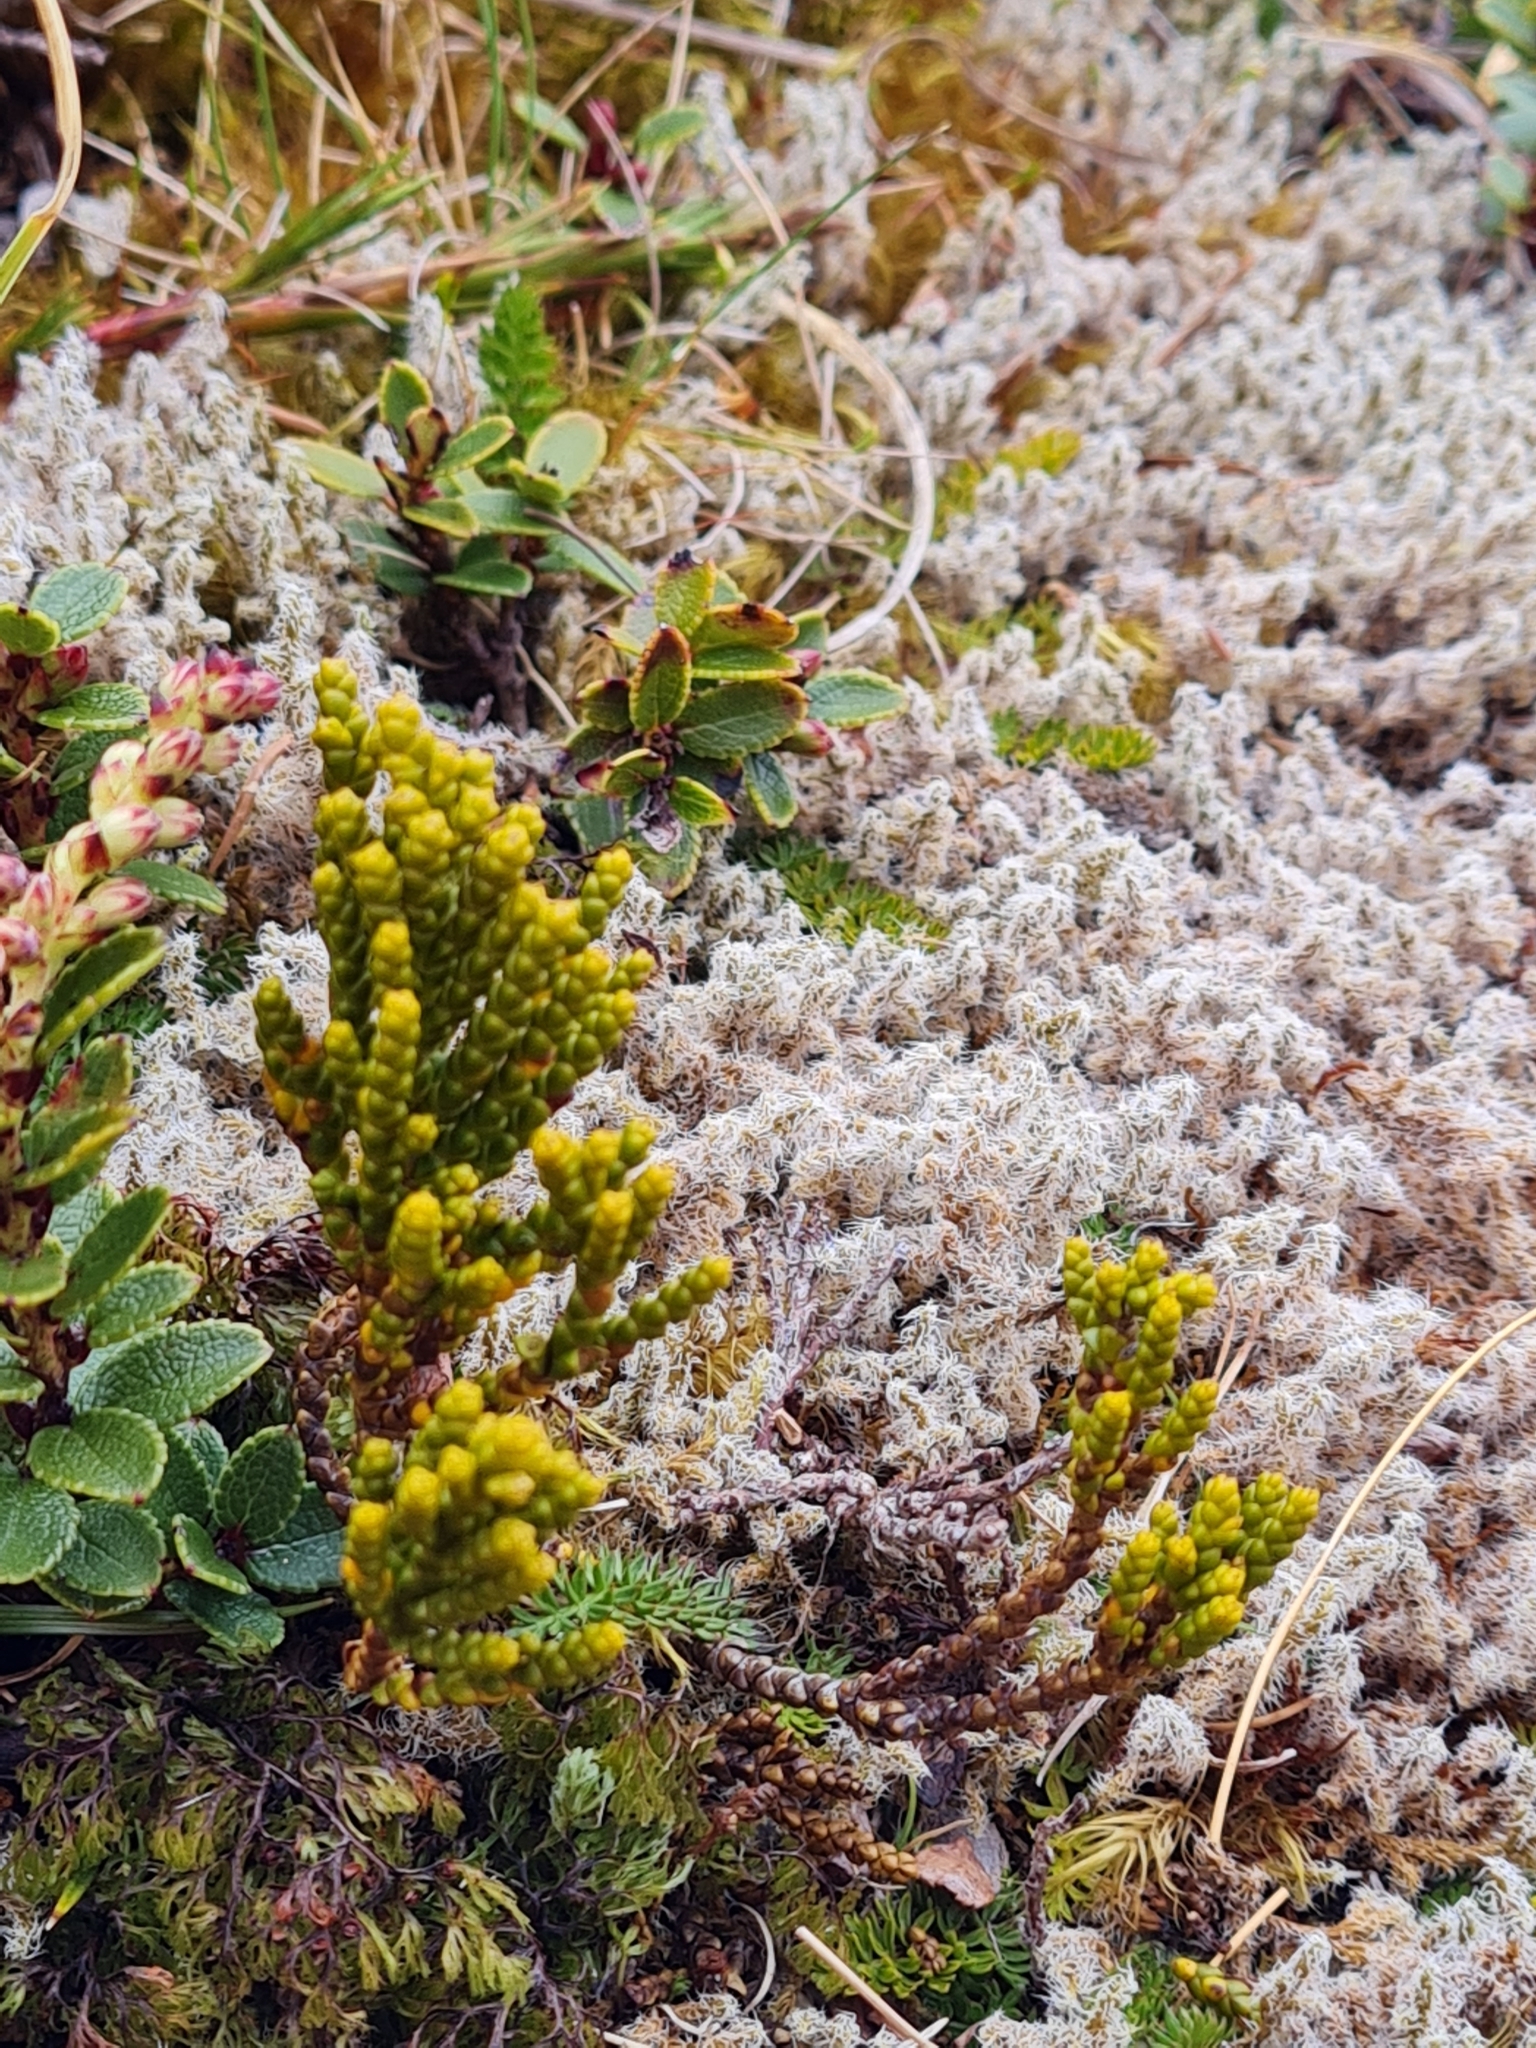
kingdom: Plantae
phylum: Tracheophyta
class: Magnoliopsida
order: Lamiales
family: Plantaginaceae
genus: Veronica
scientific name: Veronica hectorii
